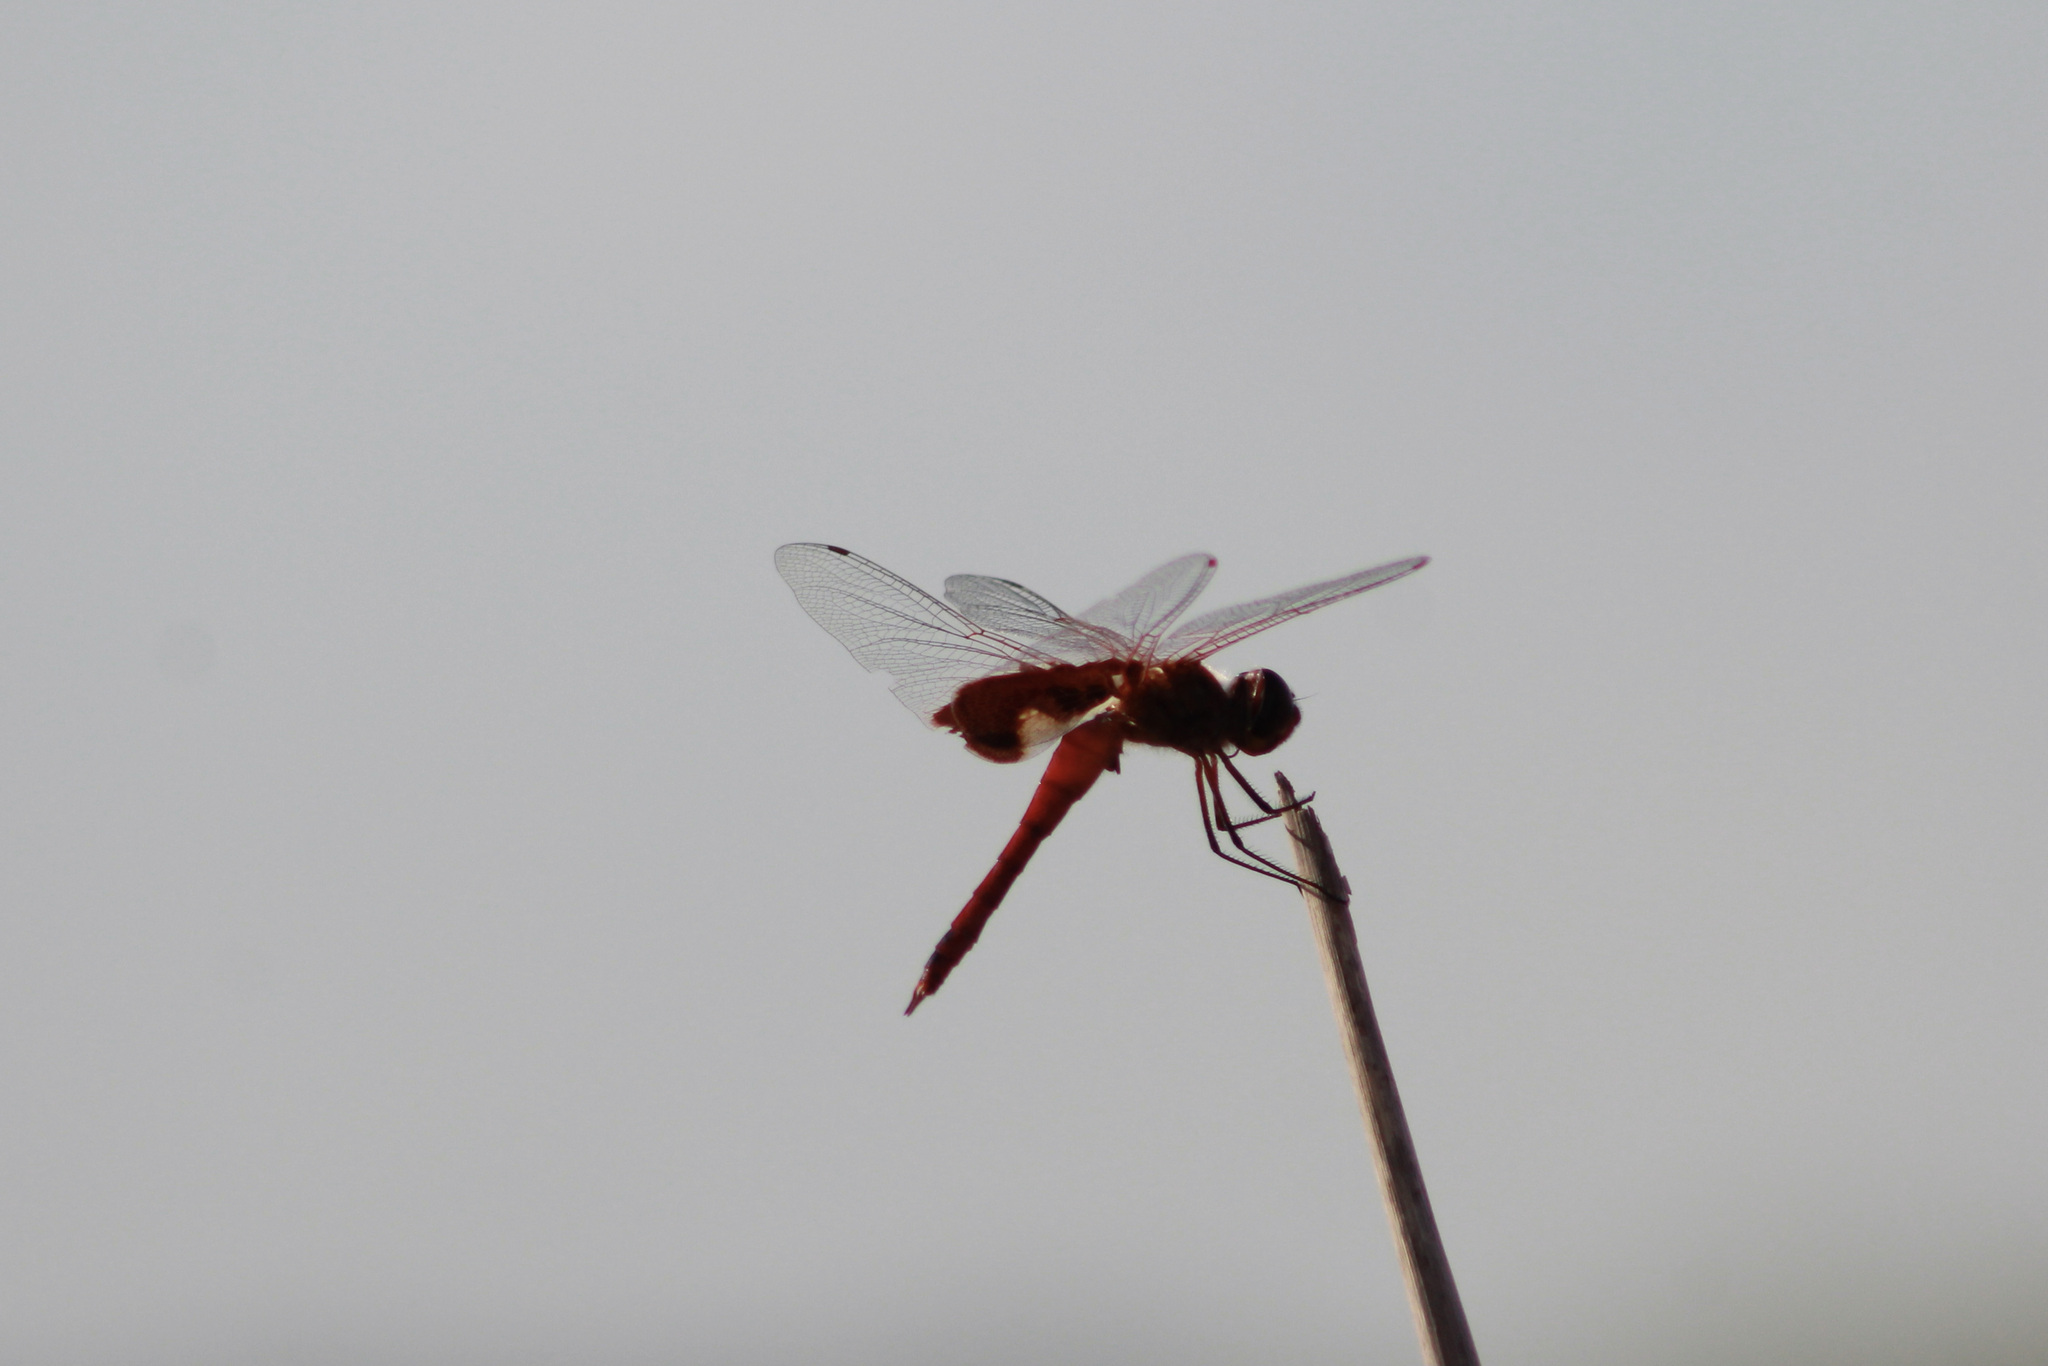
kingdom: Animalia
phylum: Arthropoda
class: Insecta
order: Odonata
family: Libellulidae
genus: Tramea
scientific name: Tramea onusta
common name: Red saddlebags
